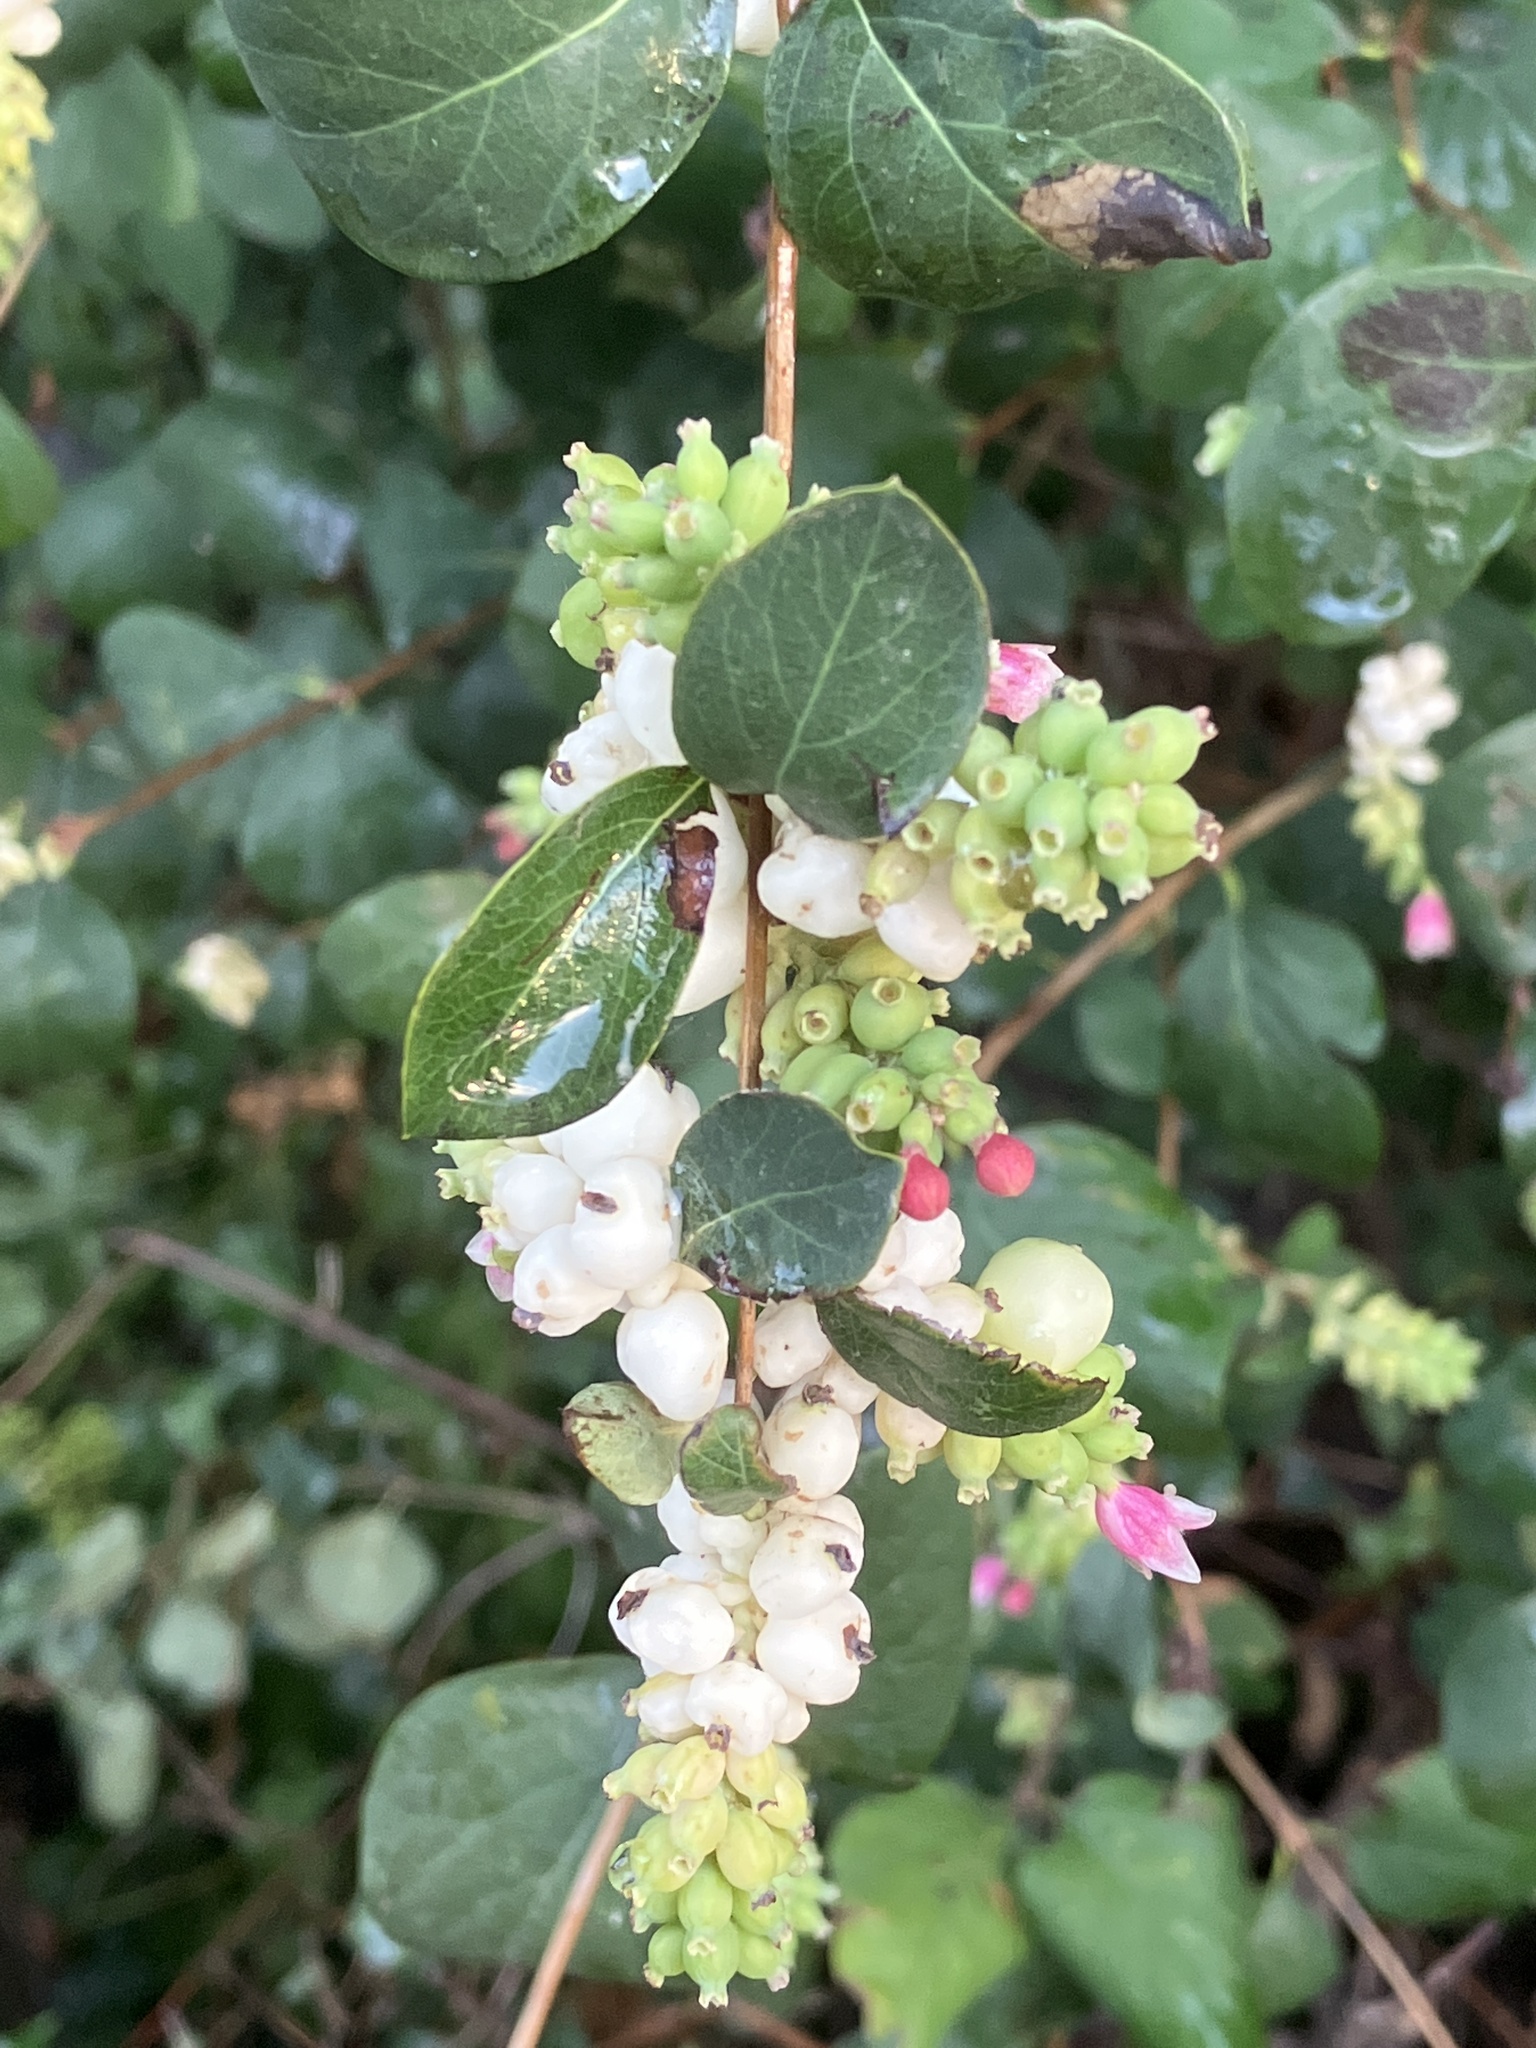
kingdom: Plantae
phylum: Tracheophyta
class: Magnoliopsida
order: Dipsacales
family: Caprifoliaceae
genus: Symphoricarpos
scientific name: Symphoricarpos albus
